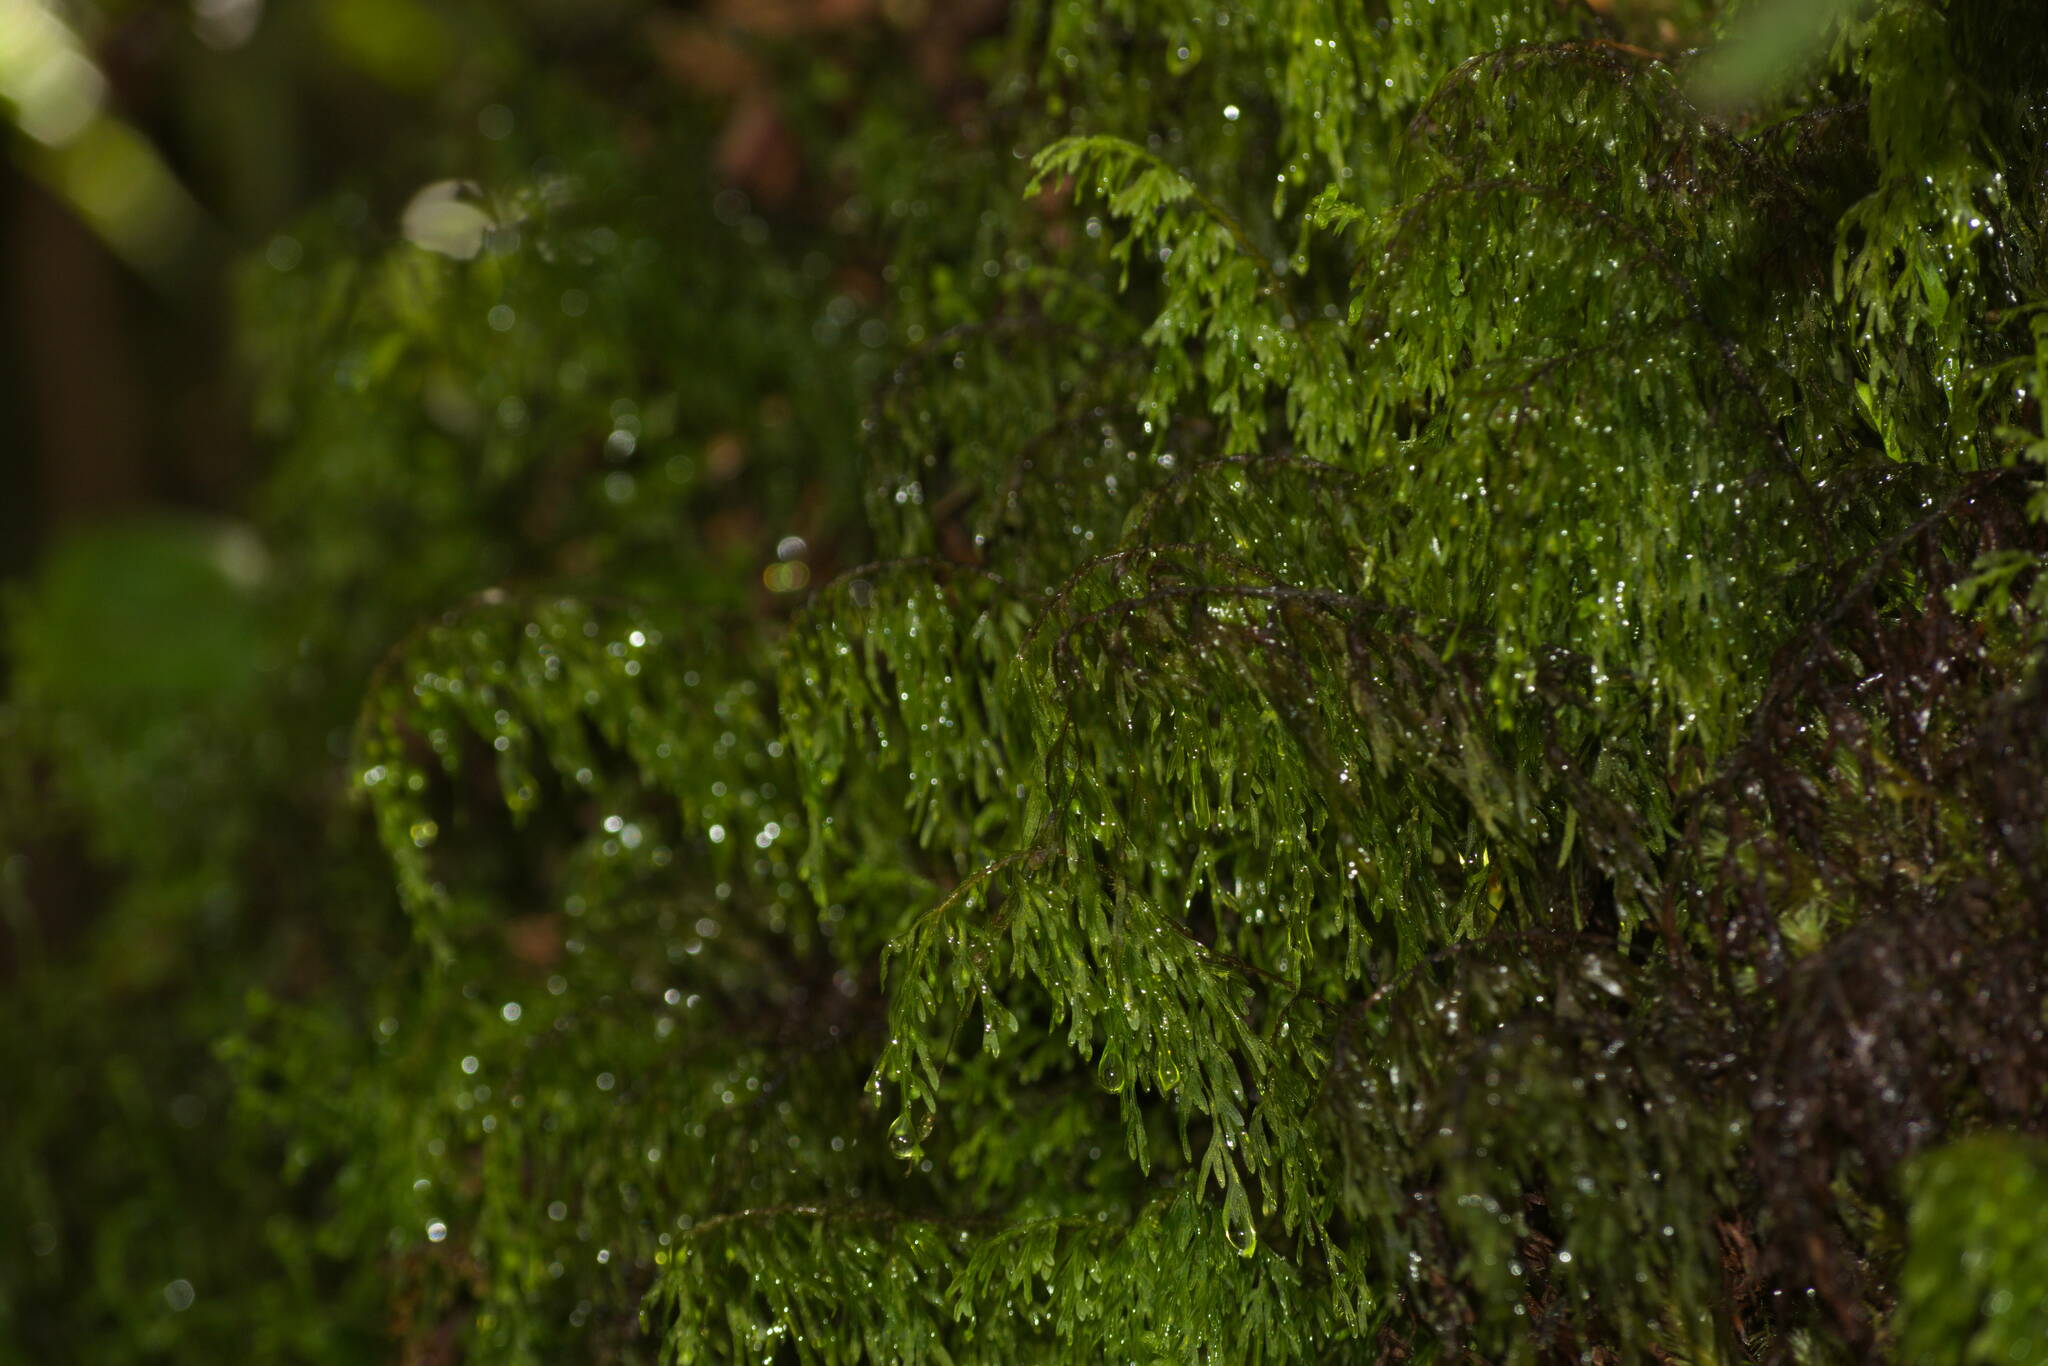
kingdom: Plantae
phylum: Tracheophyta
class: Polypodiopsida
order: Hymenophyllales
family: Hymenophyllaceae
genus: Hymenophyllum
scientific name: Hymenophyllum recurvum
